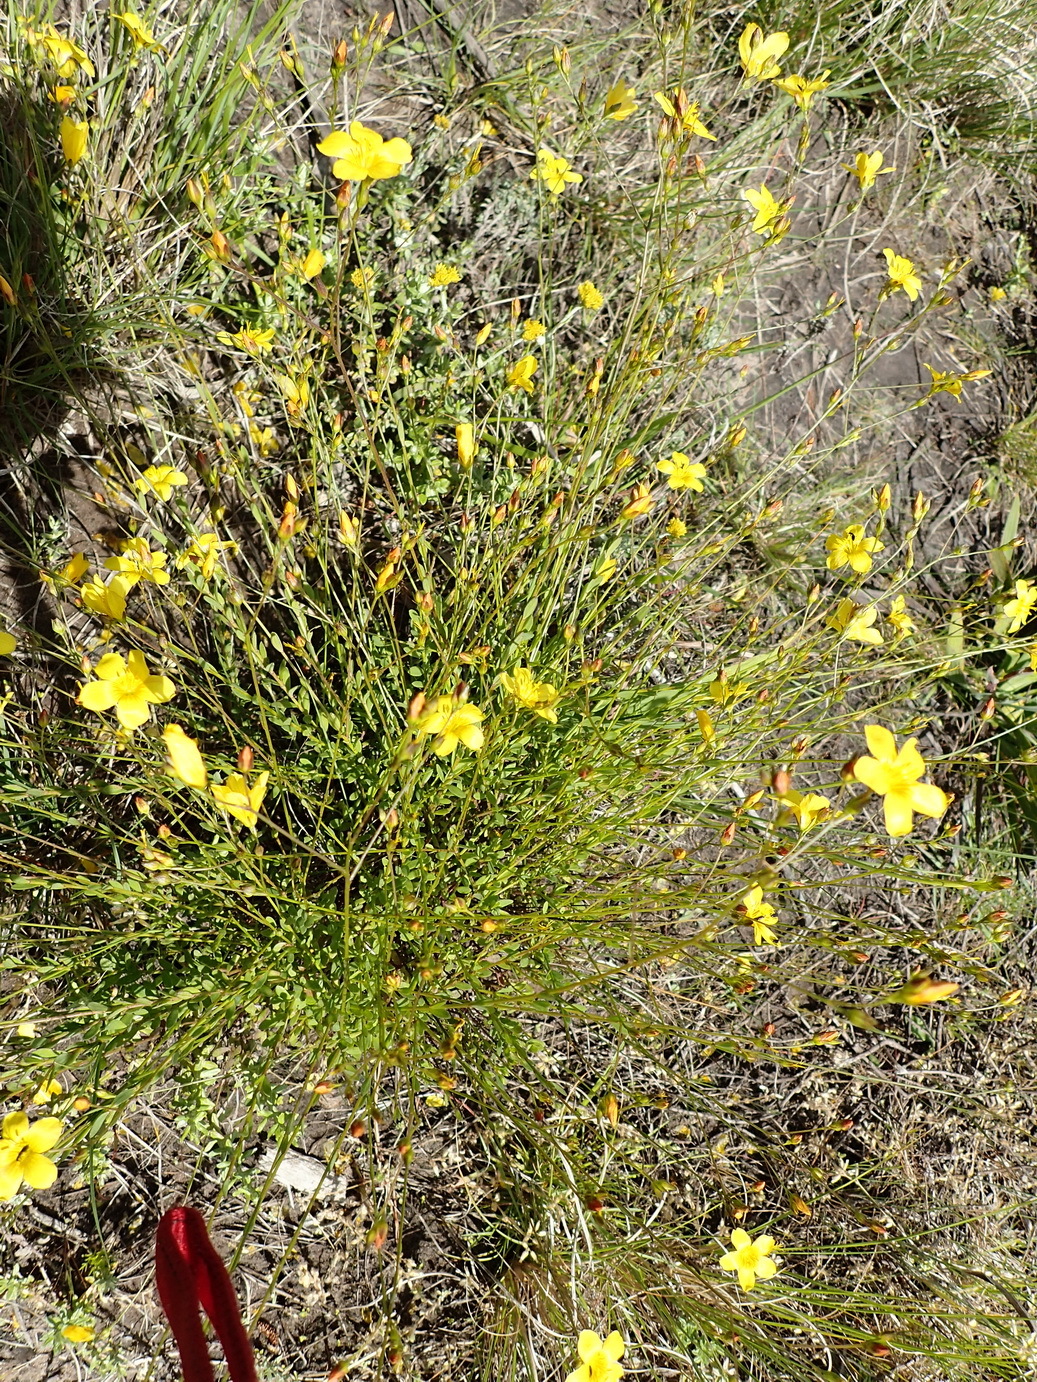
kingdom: Plantae
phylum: Tracheophyta
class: Magnoliopsida
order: Malpighiales
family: Linaceae
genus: Linum
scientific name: Linum africanum
